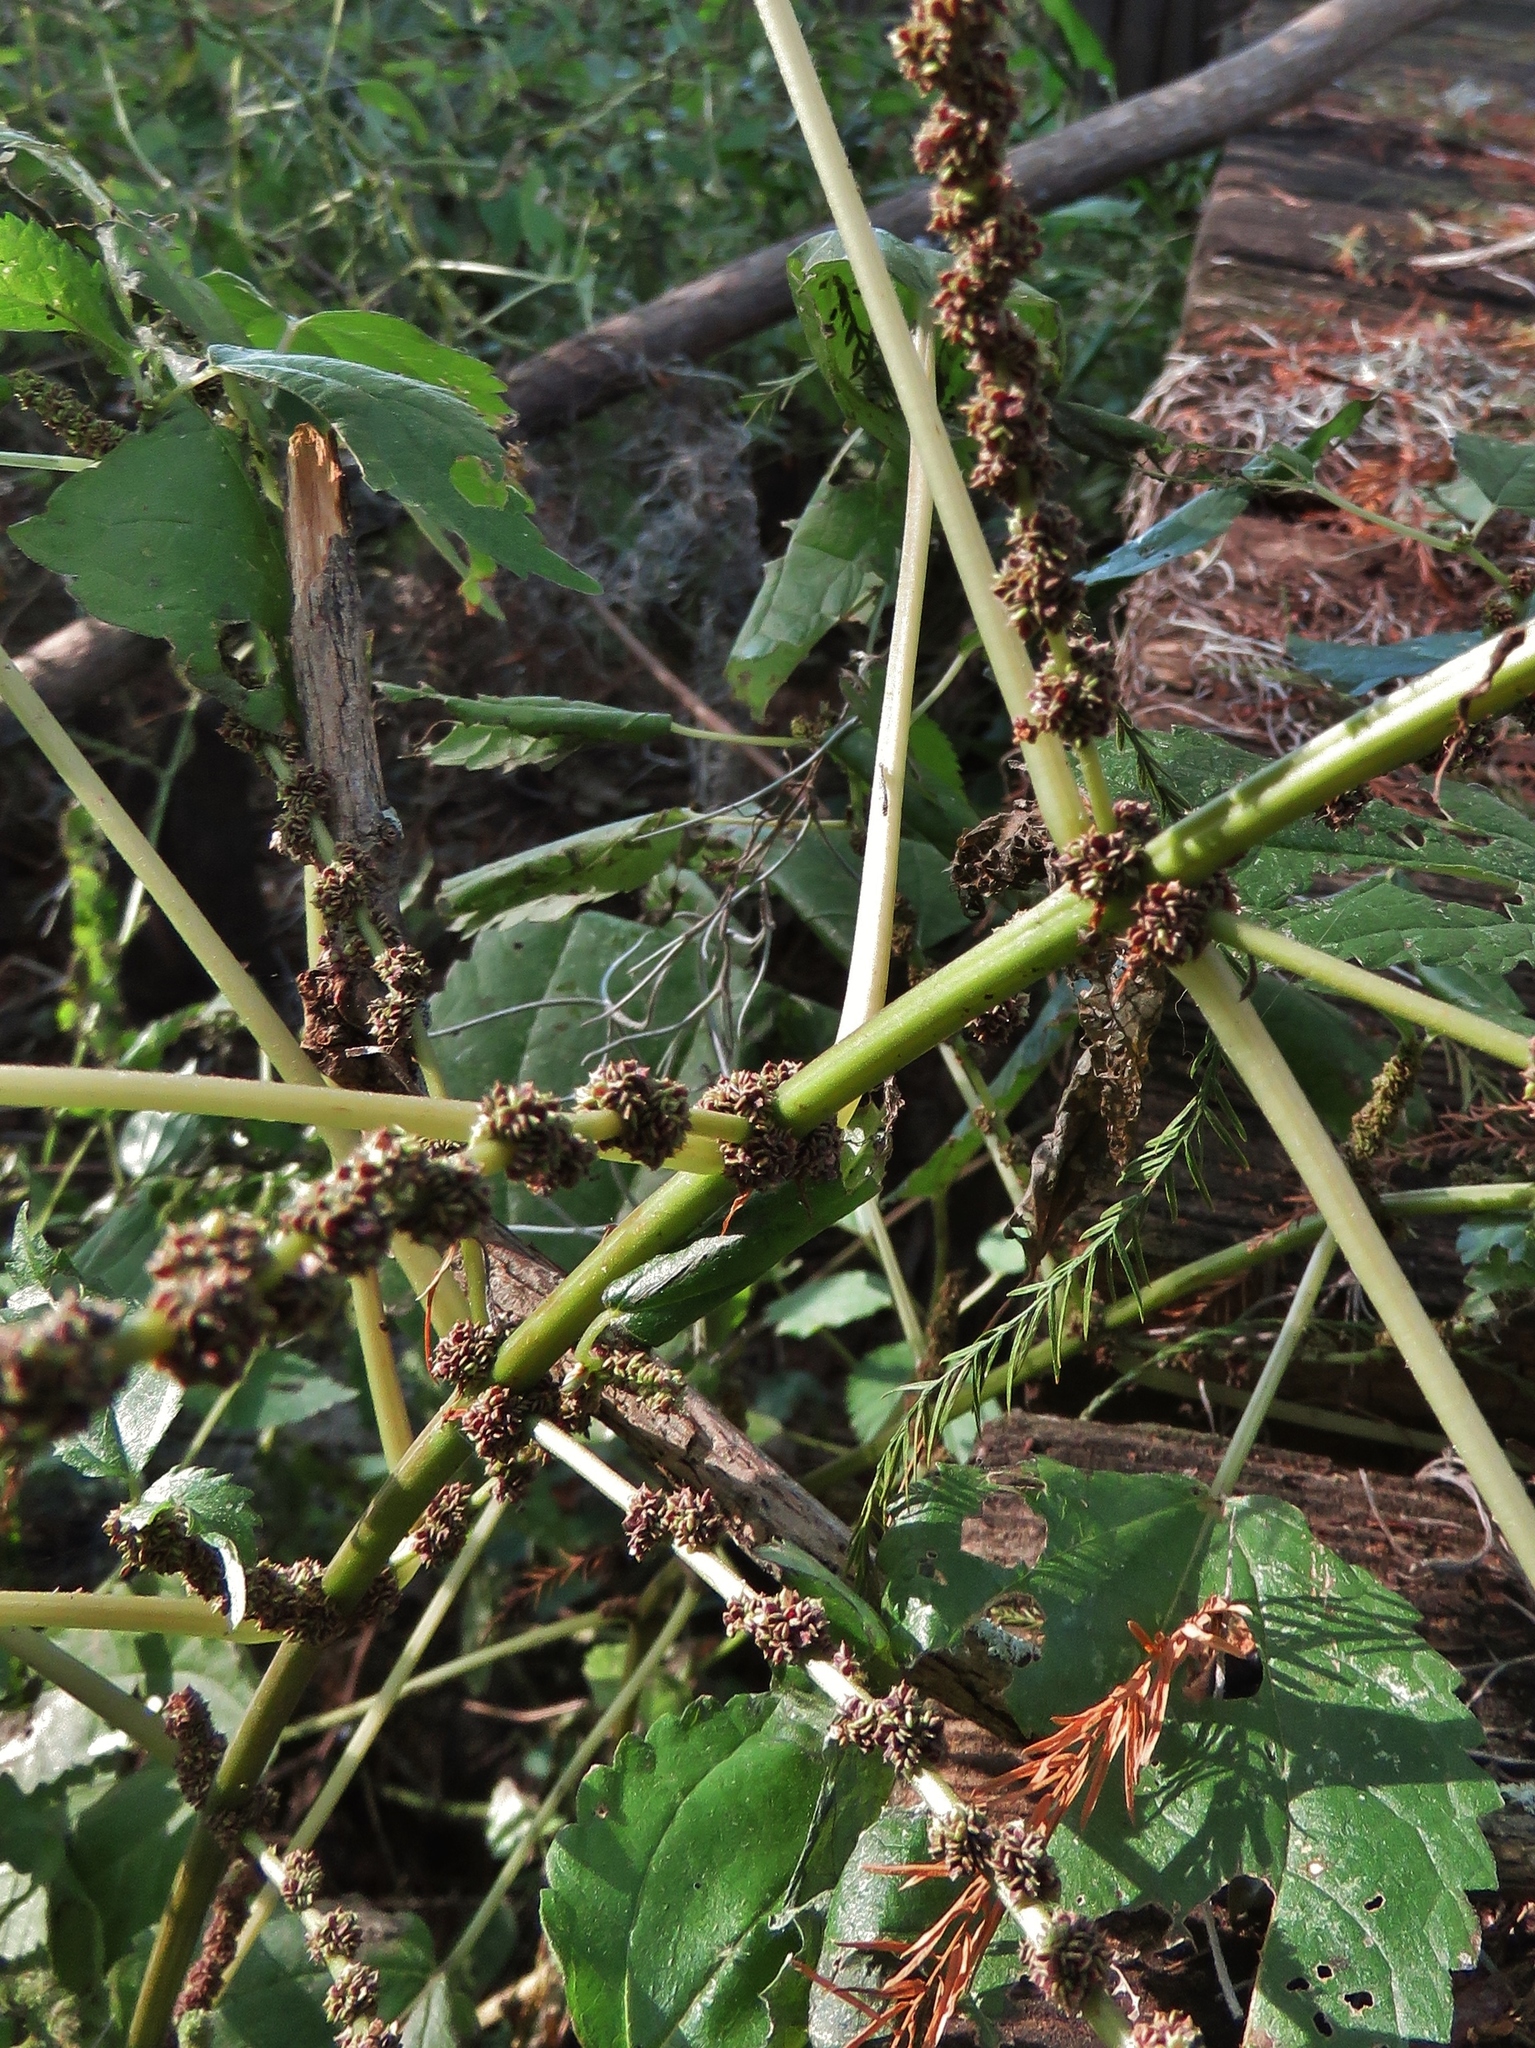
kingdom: Plantae
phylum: Tracheophyta
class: Magnoliopsida
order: Rosales
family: Urticaceae
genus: Boehmeria
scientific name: Boehmeria cylindrica
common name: Bog-hemp
